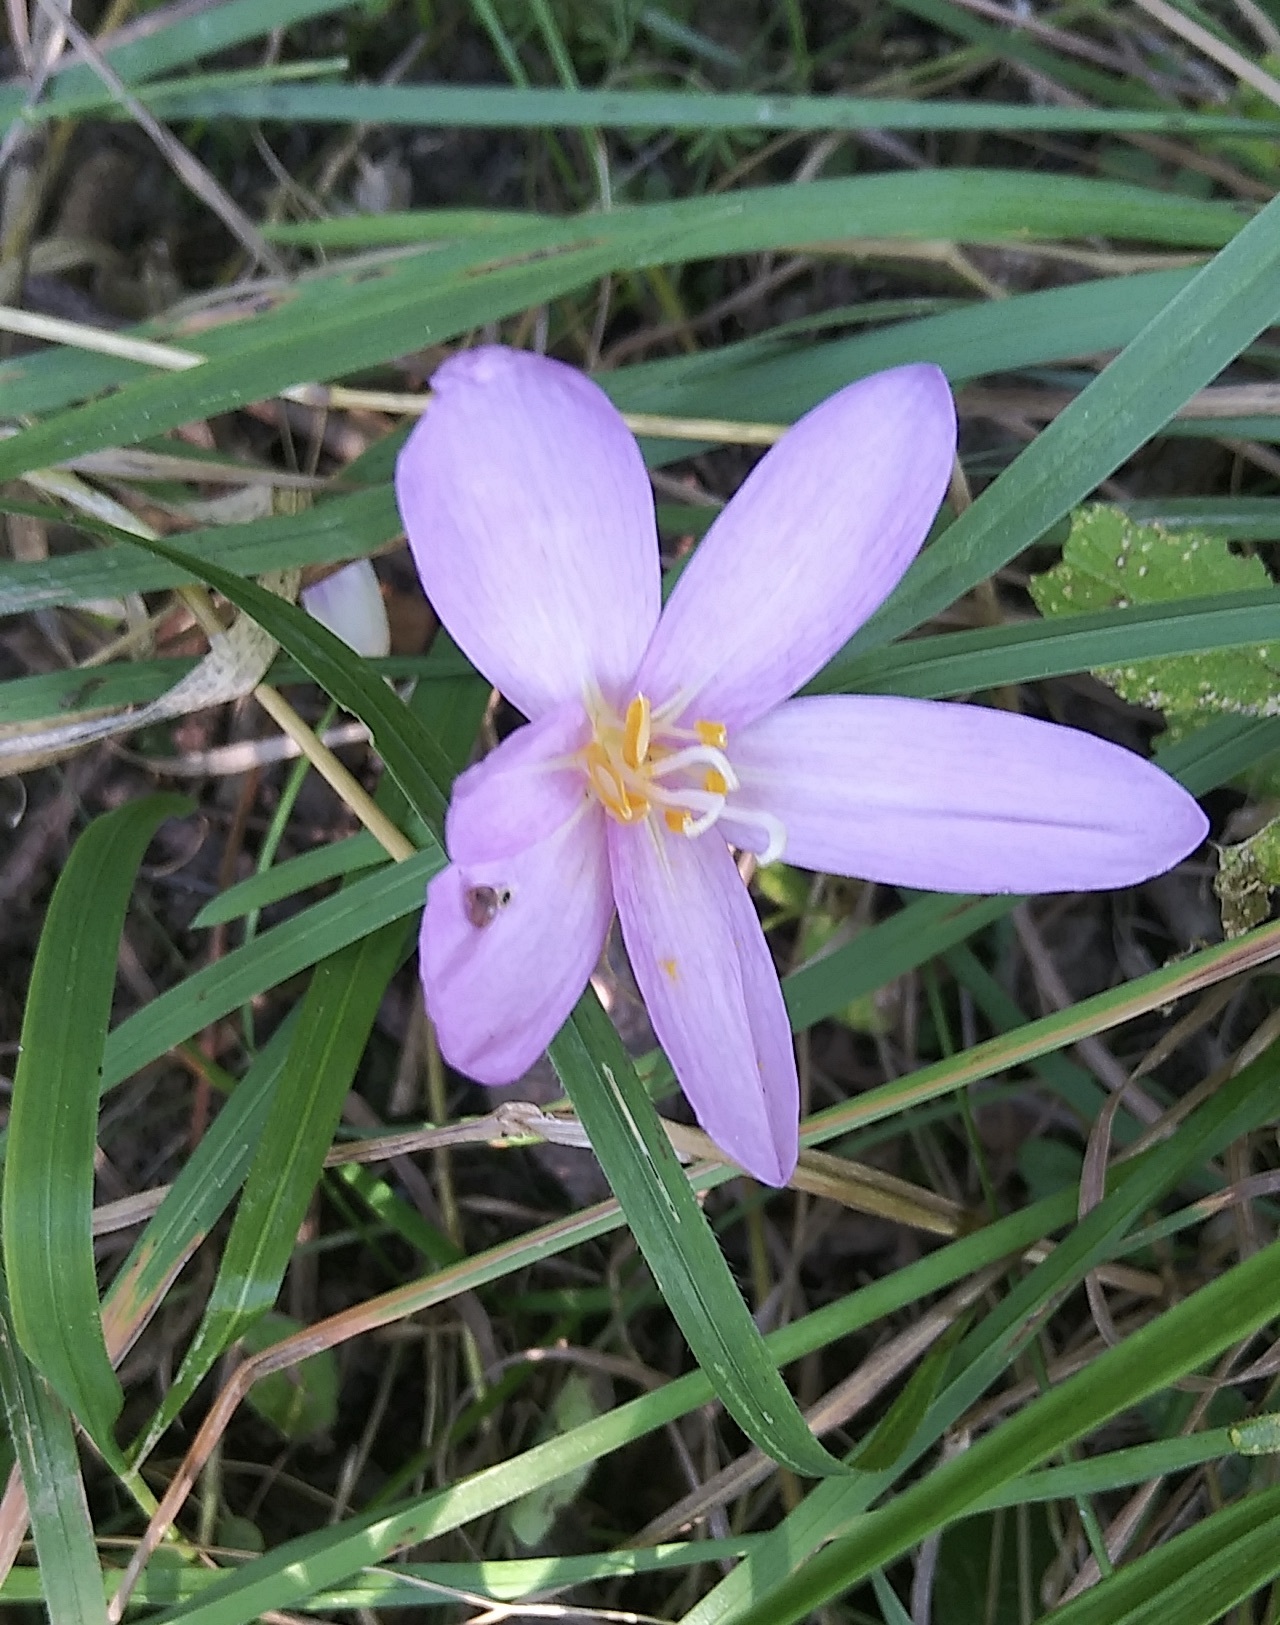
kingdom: Plantae
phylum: Tracheophyta
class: Liliopsida
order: Liliales
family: Colchicaceae
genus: Colchicum
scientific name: Colchicum autumnale
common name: Autumn crocus
